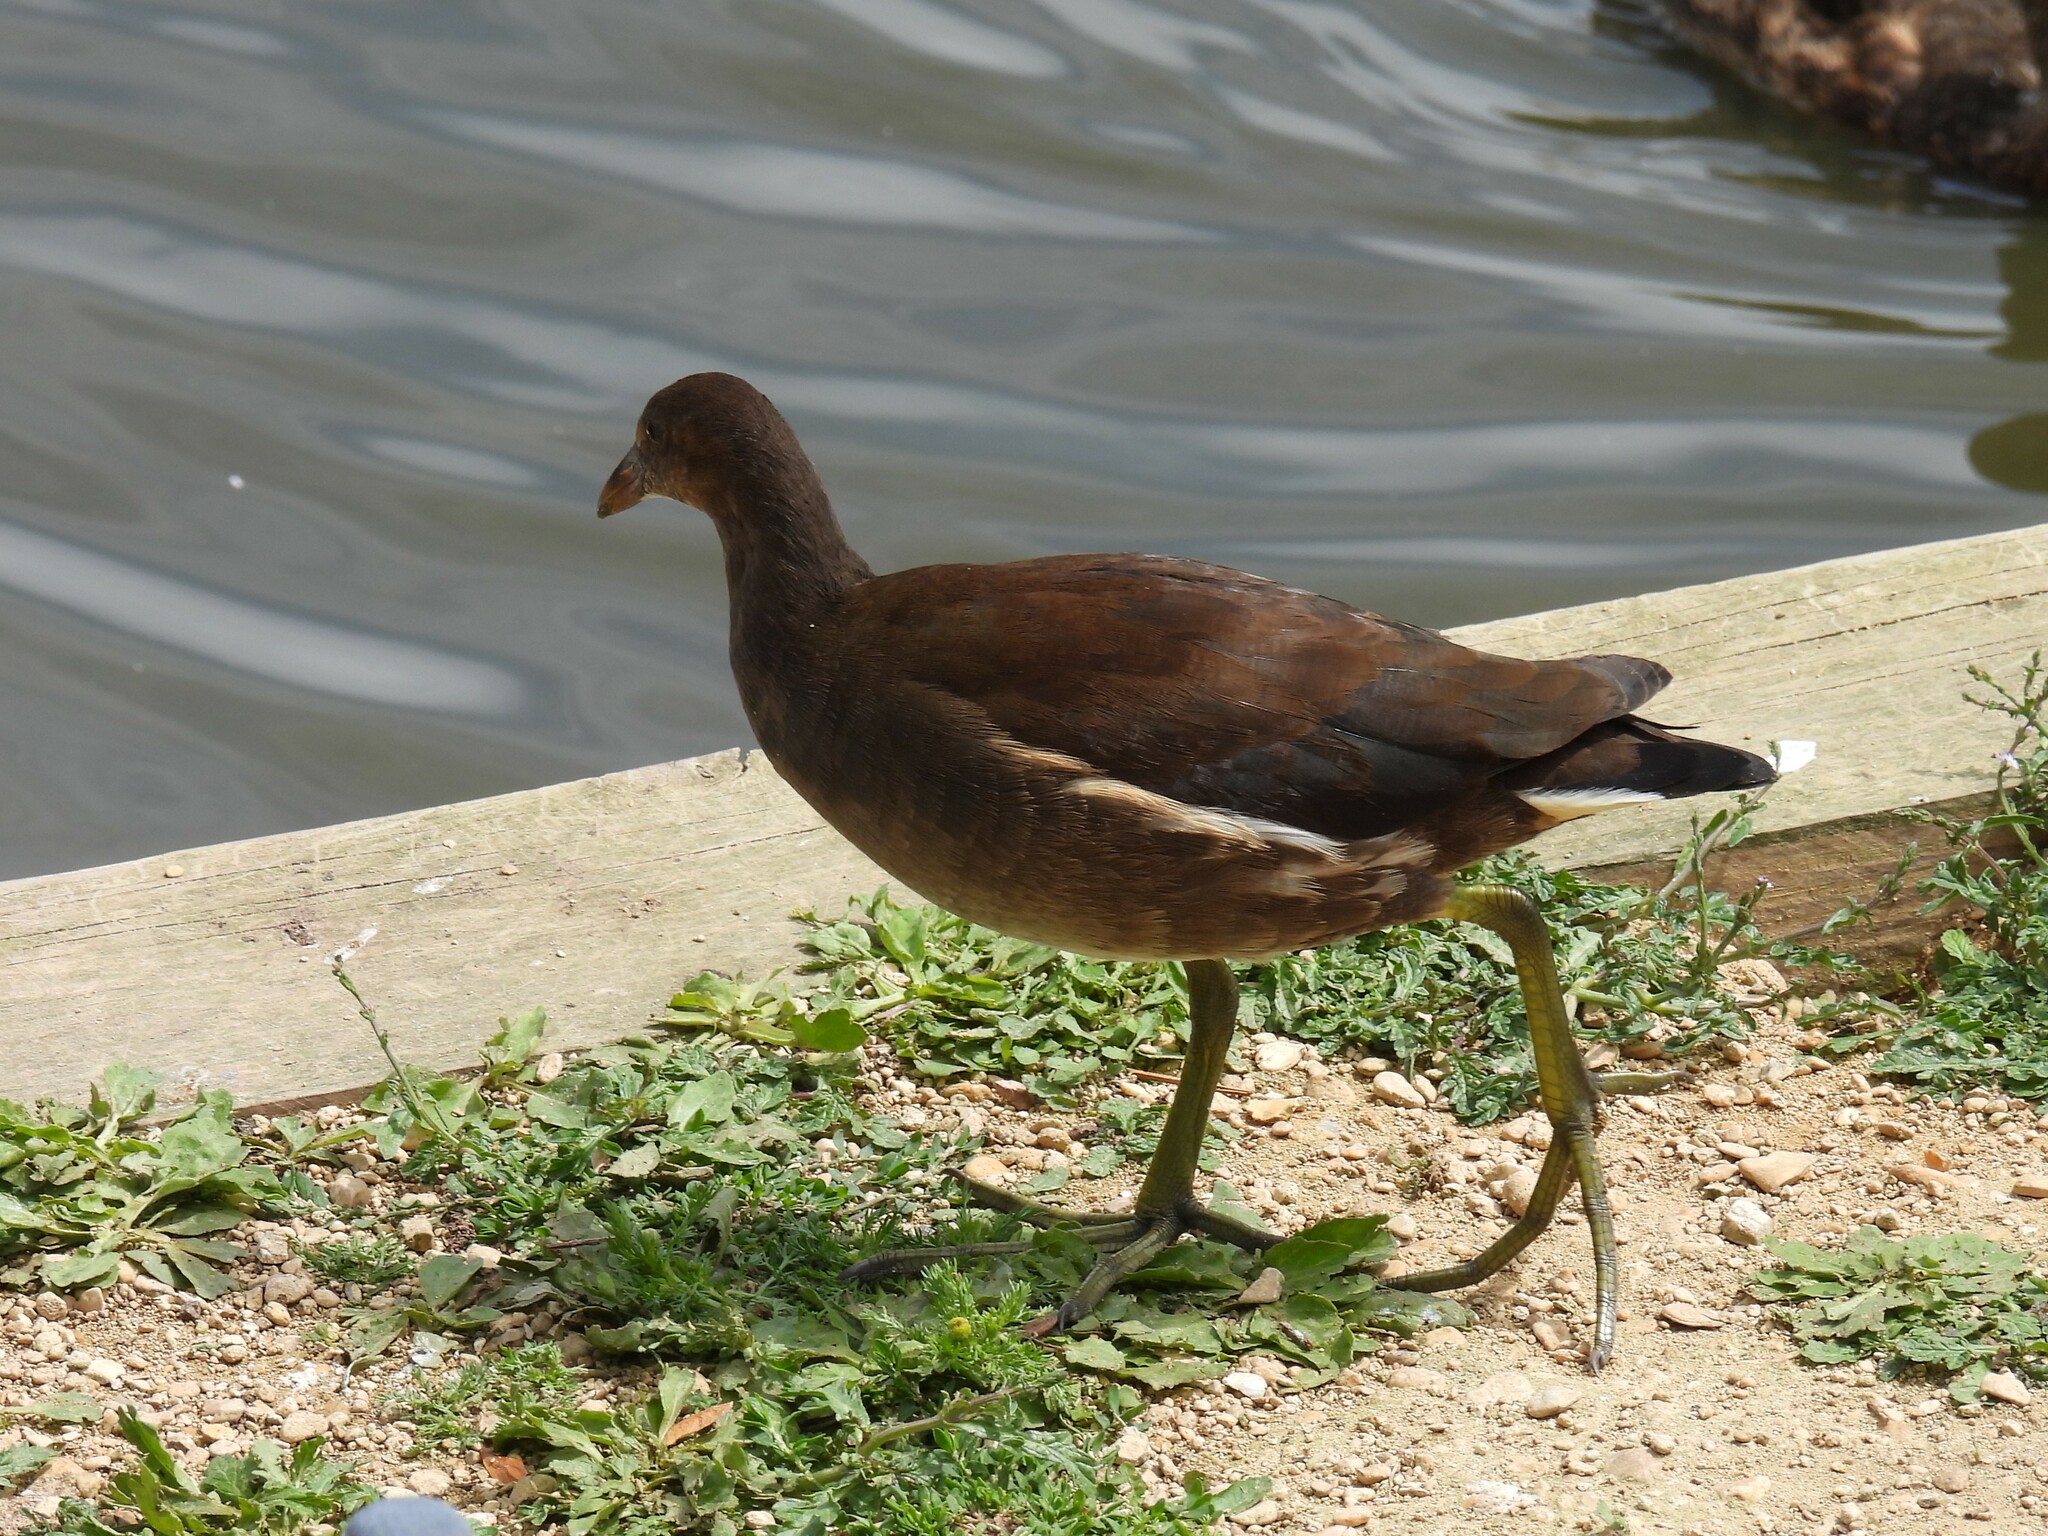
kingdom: Animalia
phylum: Chordata
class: Aves
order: Gruiformes
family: Rallidae
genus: Gallinula
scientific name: Gallinula chloropus
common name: Common moorhen
